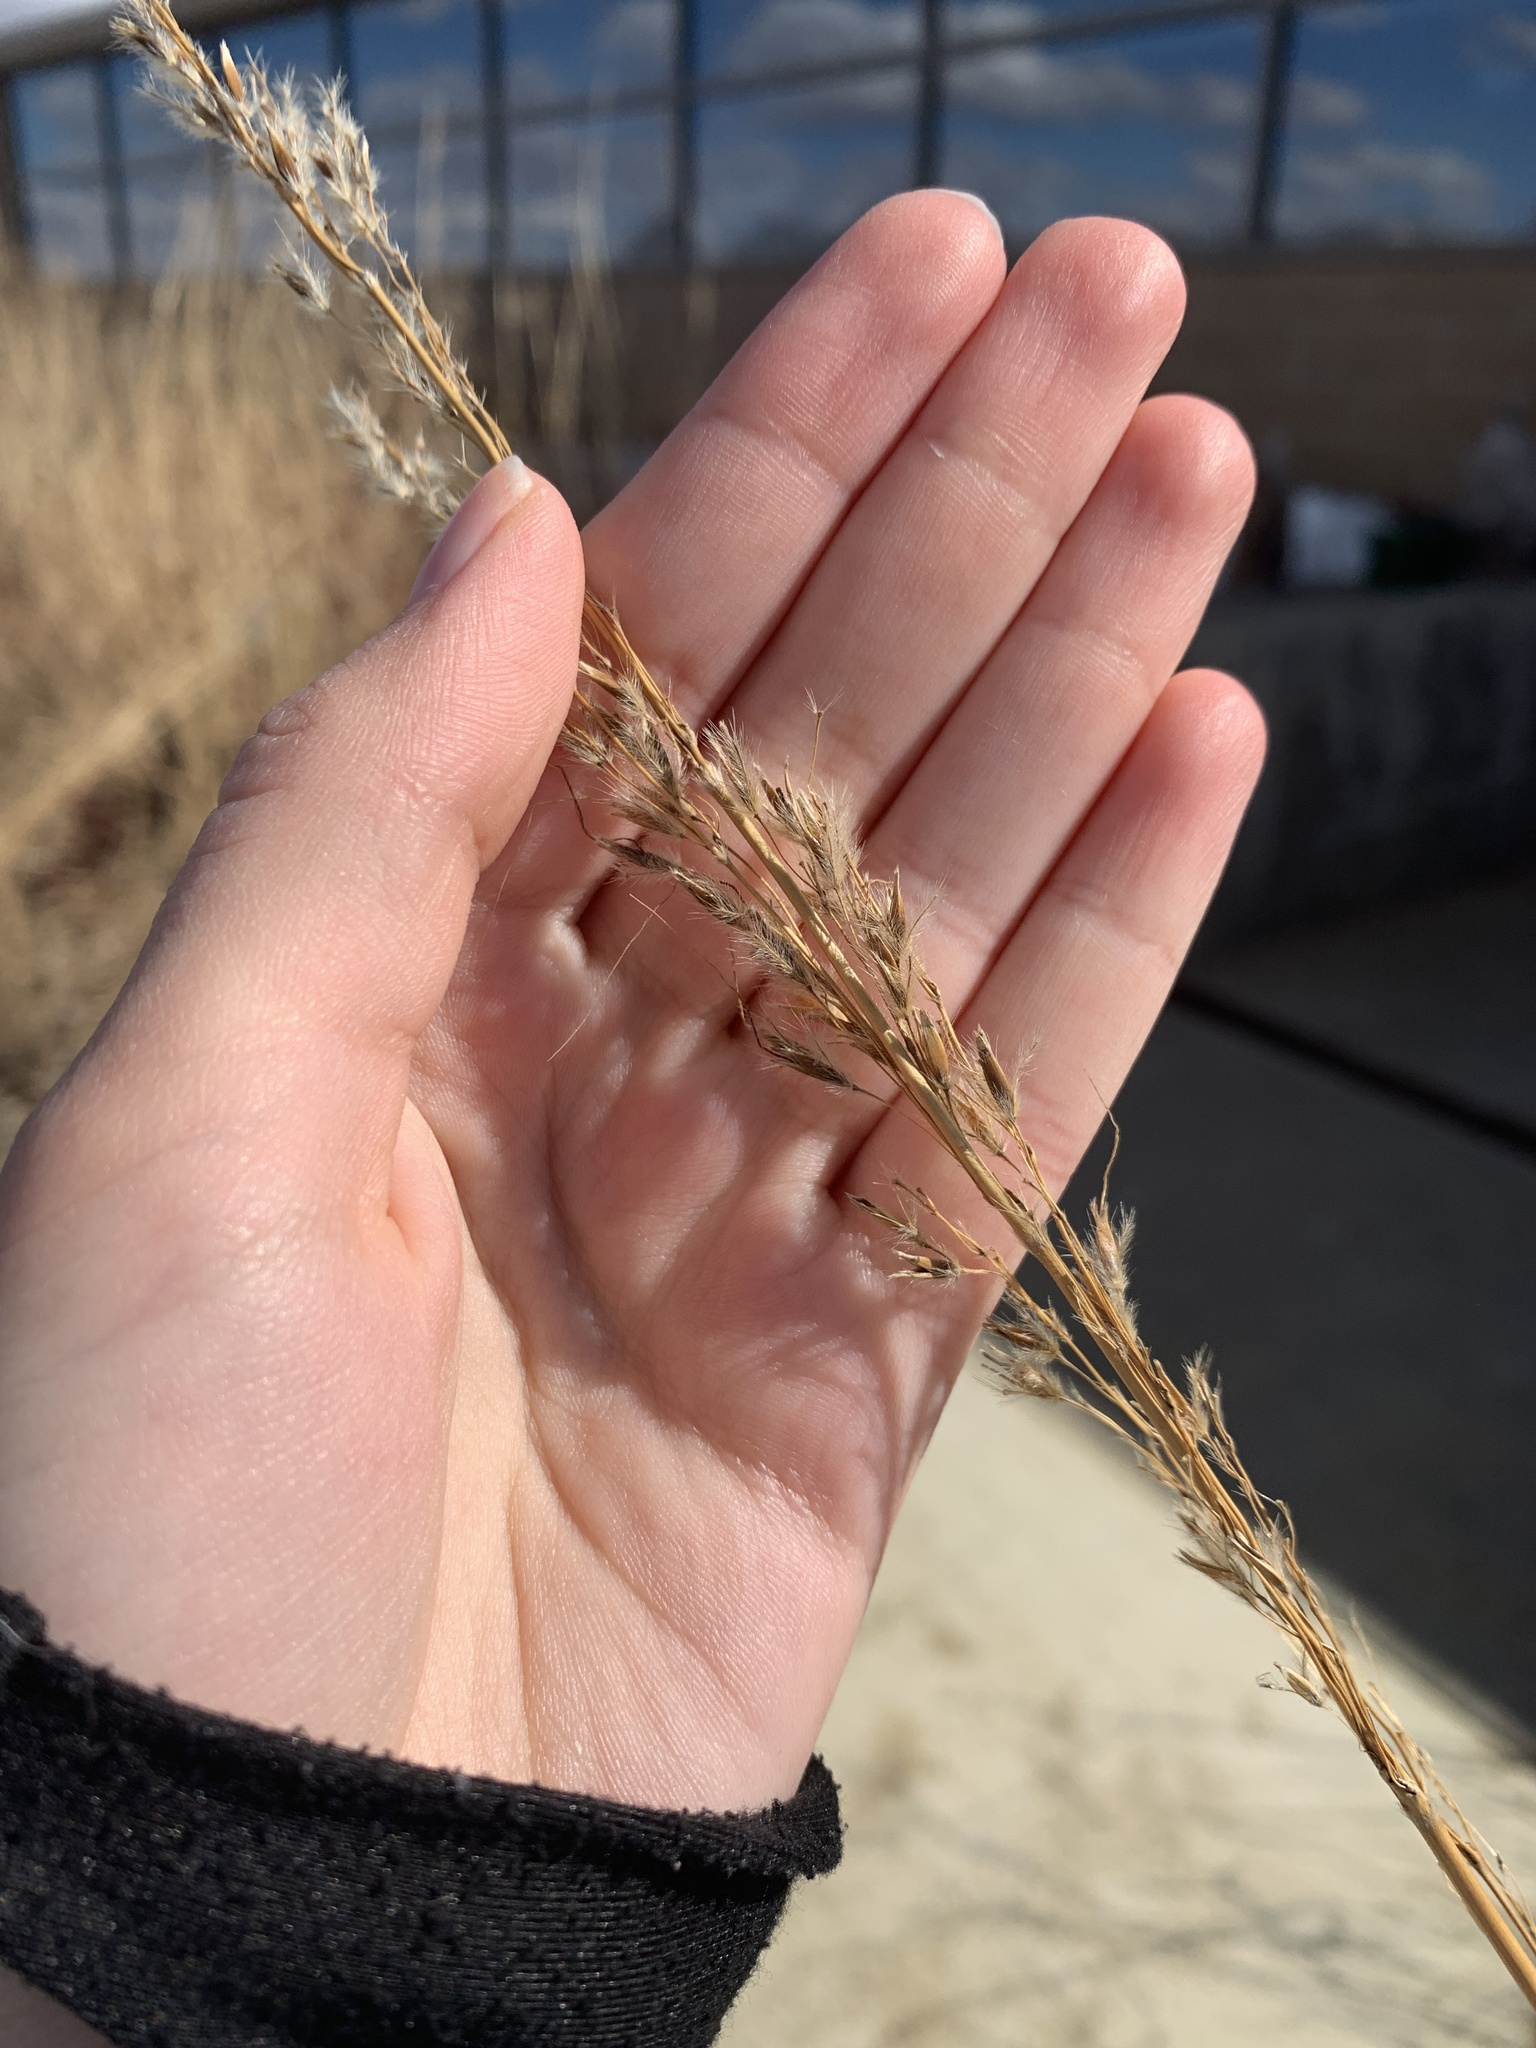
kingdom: Plantae
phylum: Tracheophyta
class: Liliopsida
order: Poales
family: Poaceae
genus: Sorghastrum
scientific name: Sorghastrum nutans
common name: Indian grass
